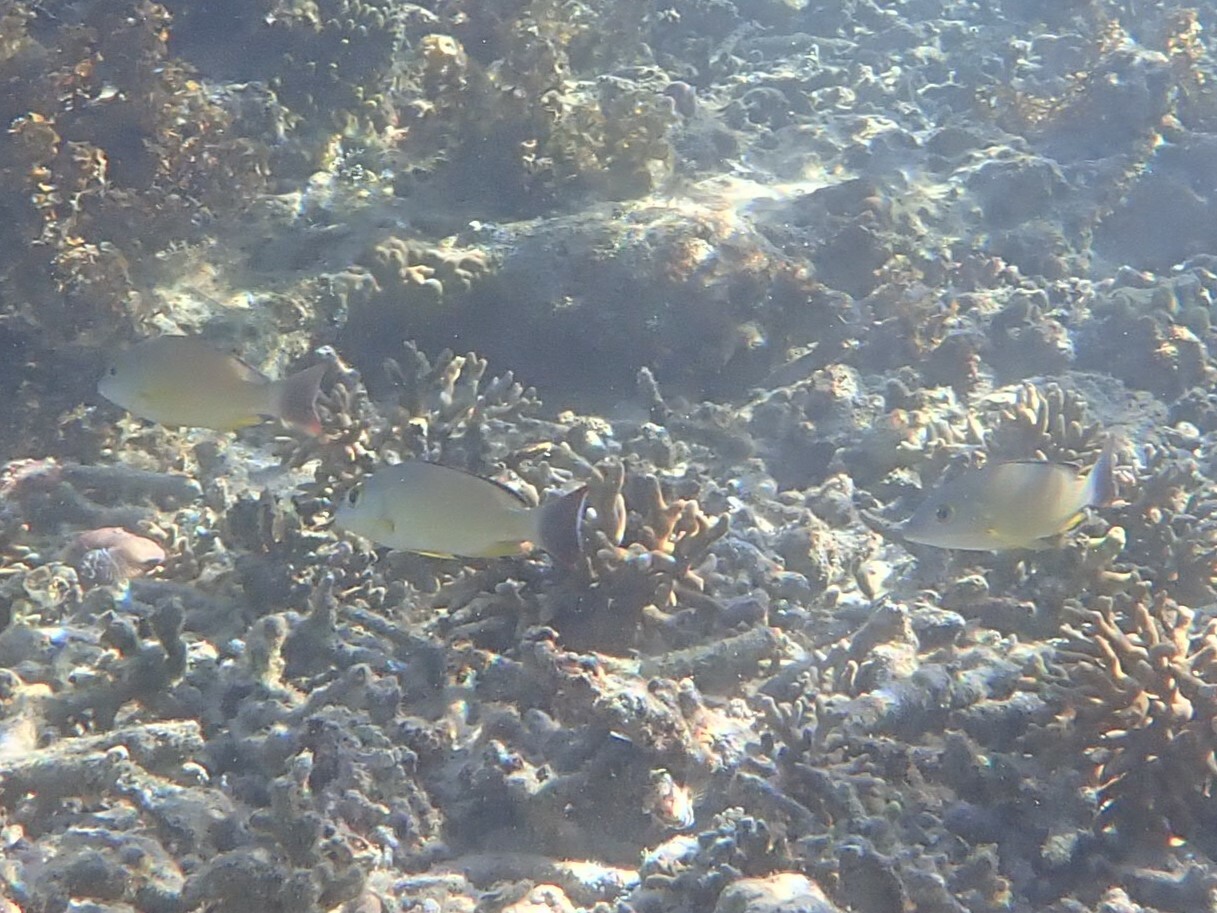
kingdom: Animalia
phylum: Chordata
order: Perciformes
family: Lutjanidae
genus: Lutjanus
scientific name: Lutjanus fulvus
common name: Blacktail snapper
